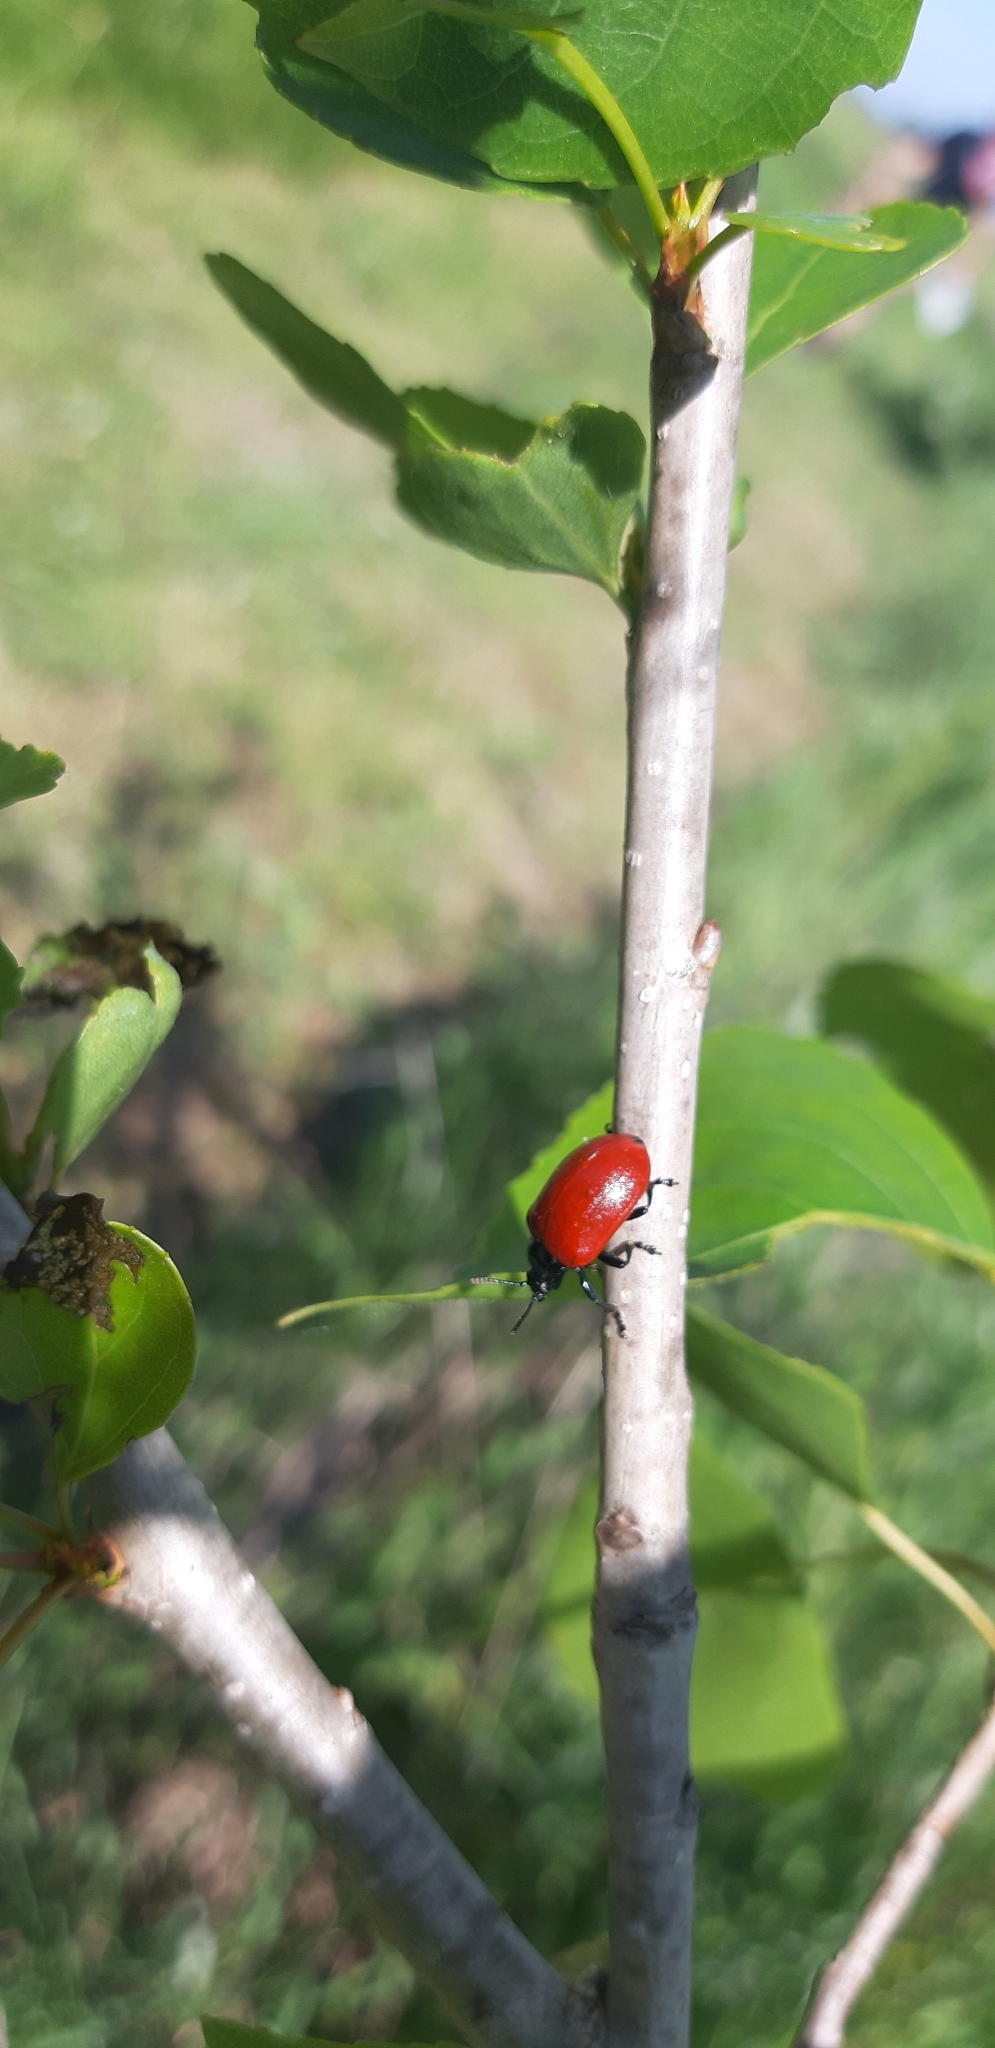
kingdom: Animalia
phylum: Arthropoda
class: Insecta
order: Coleoptera
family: Chrysomelidae
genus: Chrysomela
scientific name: Chrysomela populi
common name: Red poplar leaf beetle
